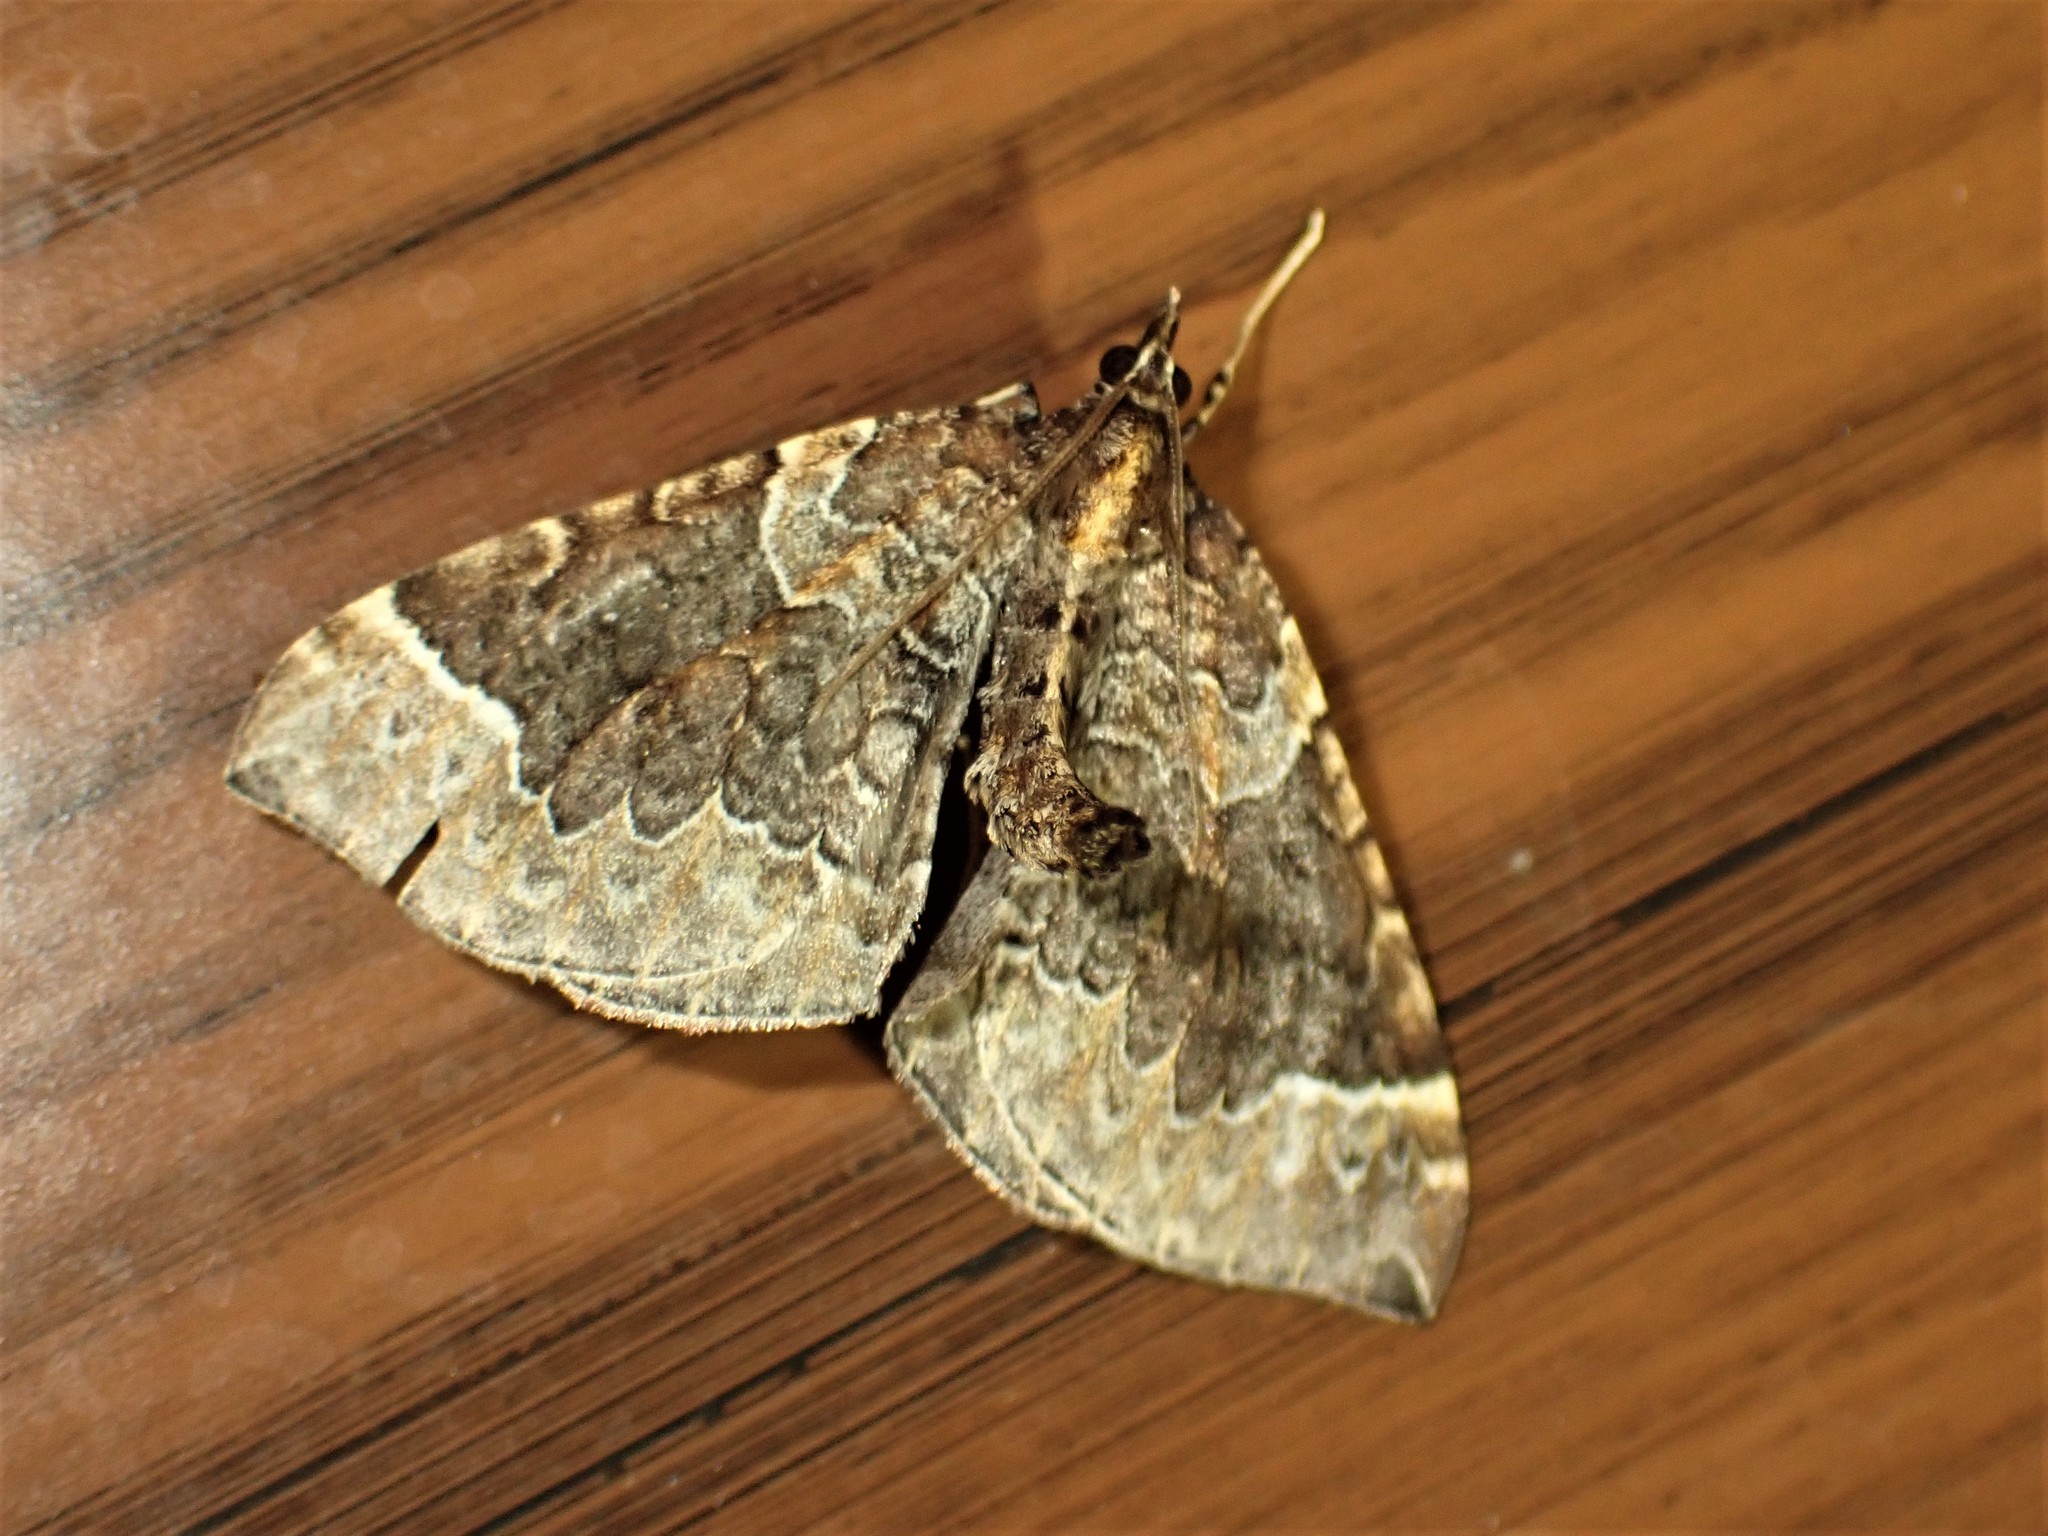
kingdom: Animalia
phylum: Arthropoda
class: Insecta
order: Lepidoptera
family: Geometridae
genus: Eulithis
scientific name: Eulithis flavibrunneata
